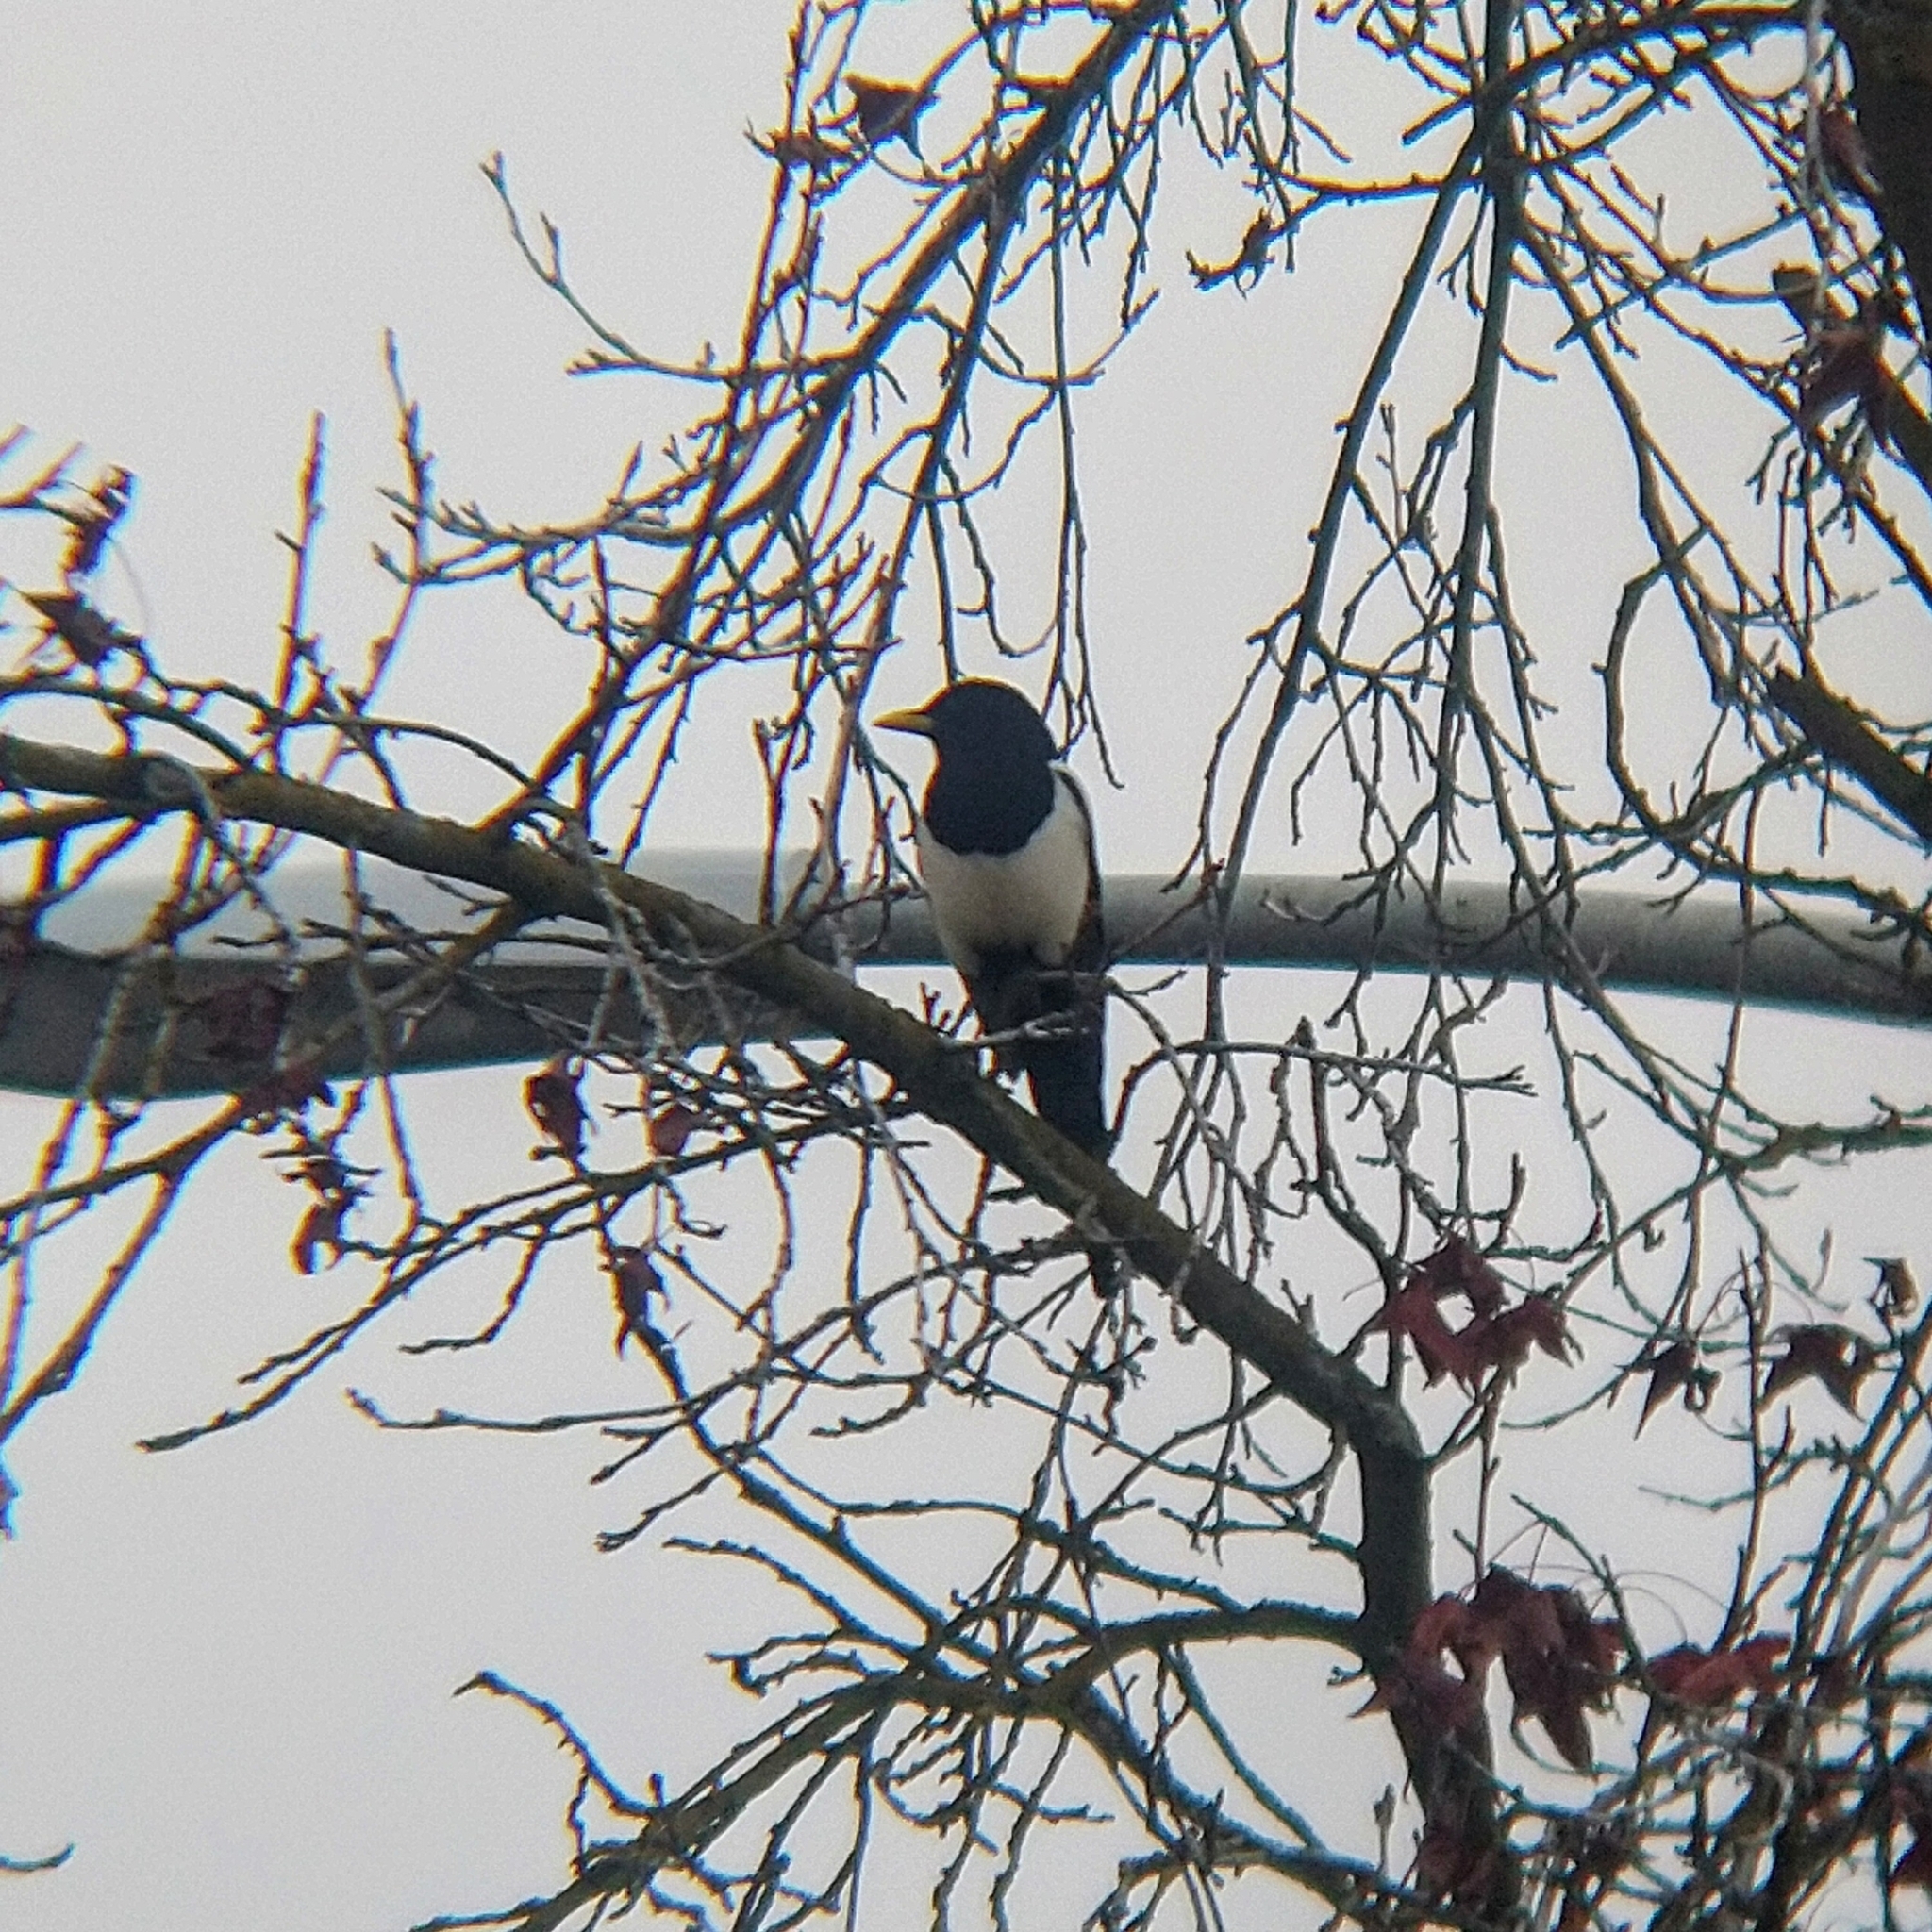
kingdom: Animalia
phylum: Chordata
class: Aves
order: Passeriformes
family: Corvidae
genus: Pica
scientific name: Pica nuttalli
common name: Yellow-billed magpie
